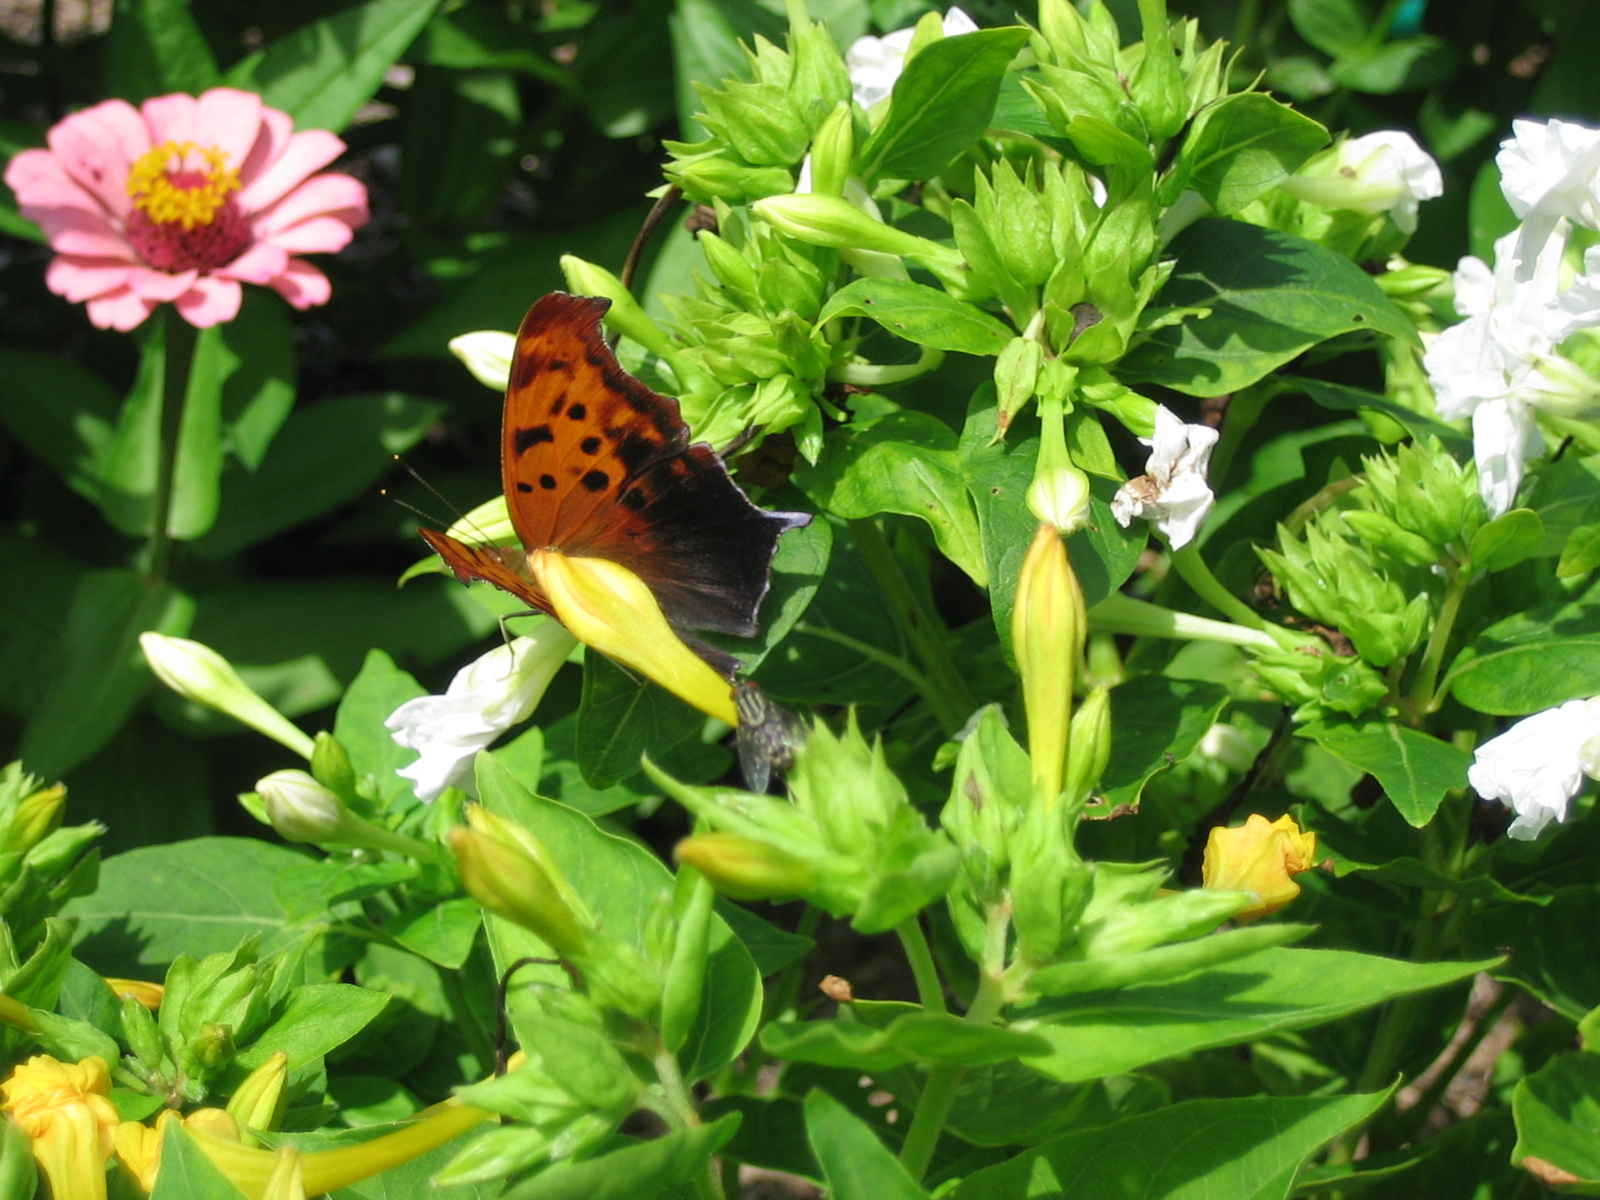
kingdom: Animalia
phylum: Arthropoda
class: Insecta
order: Lepidoptera
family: Nymphalidae
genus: Polygonia
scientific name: Polygonia interrogationis
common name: Question mark
